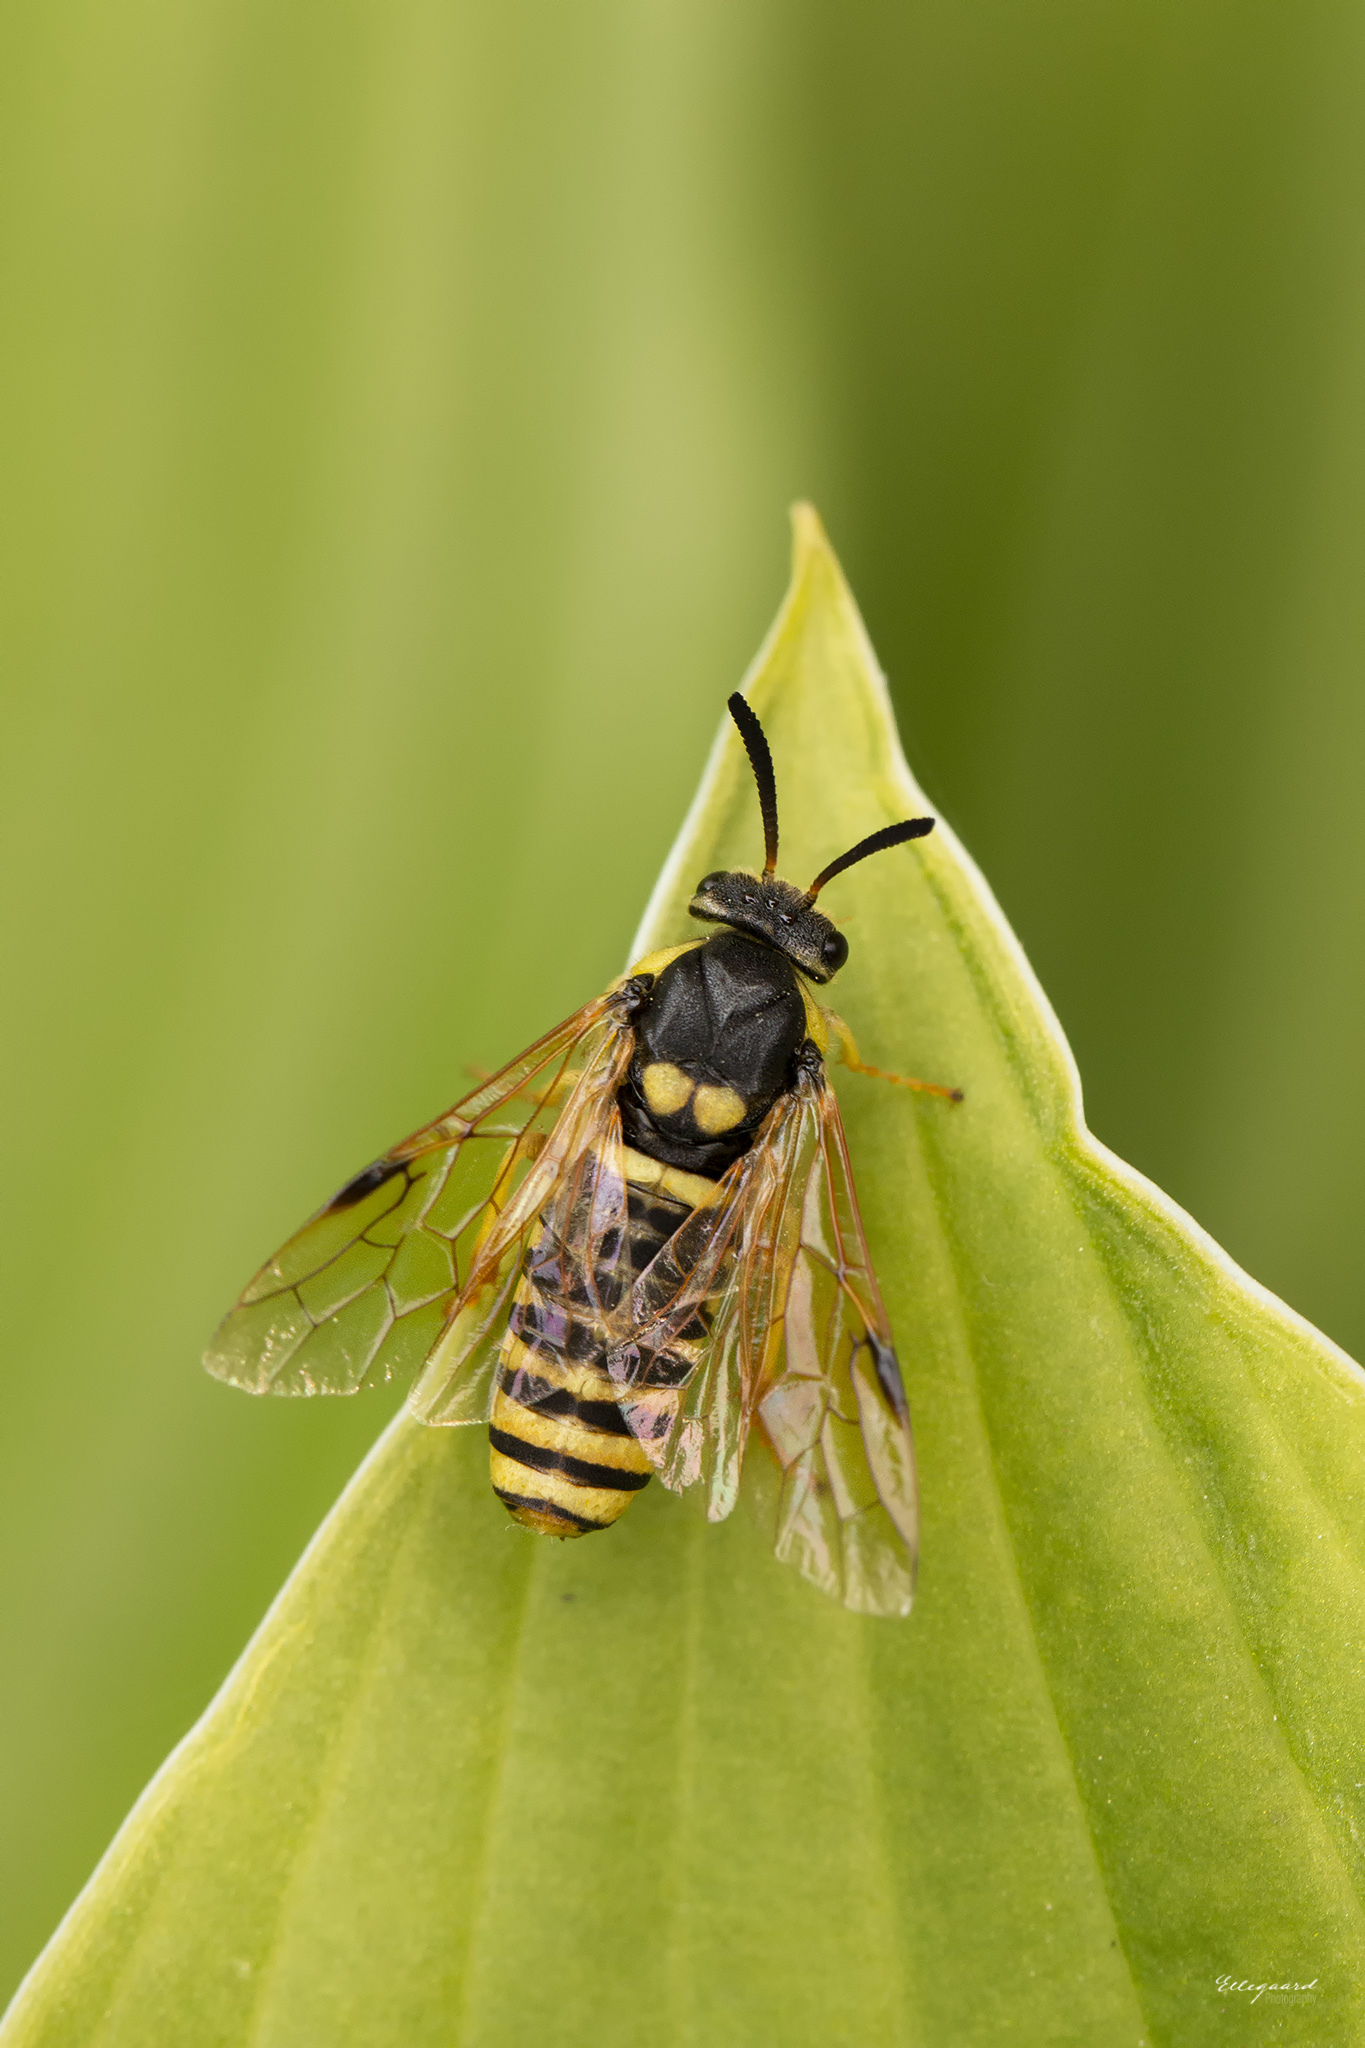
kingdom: Animalia
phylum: Arthropoda
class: Insecta
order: Hymenoptera
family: Diprionidae
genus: Macrodiprion
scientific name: Macrodiprion nemoralis
